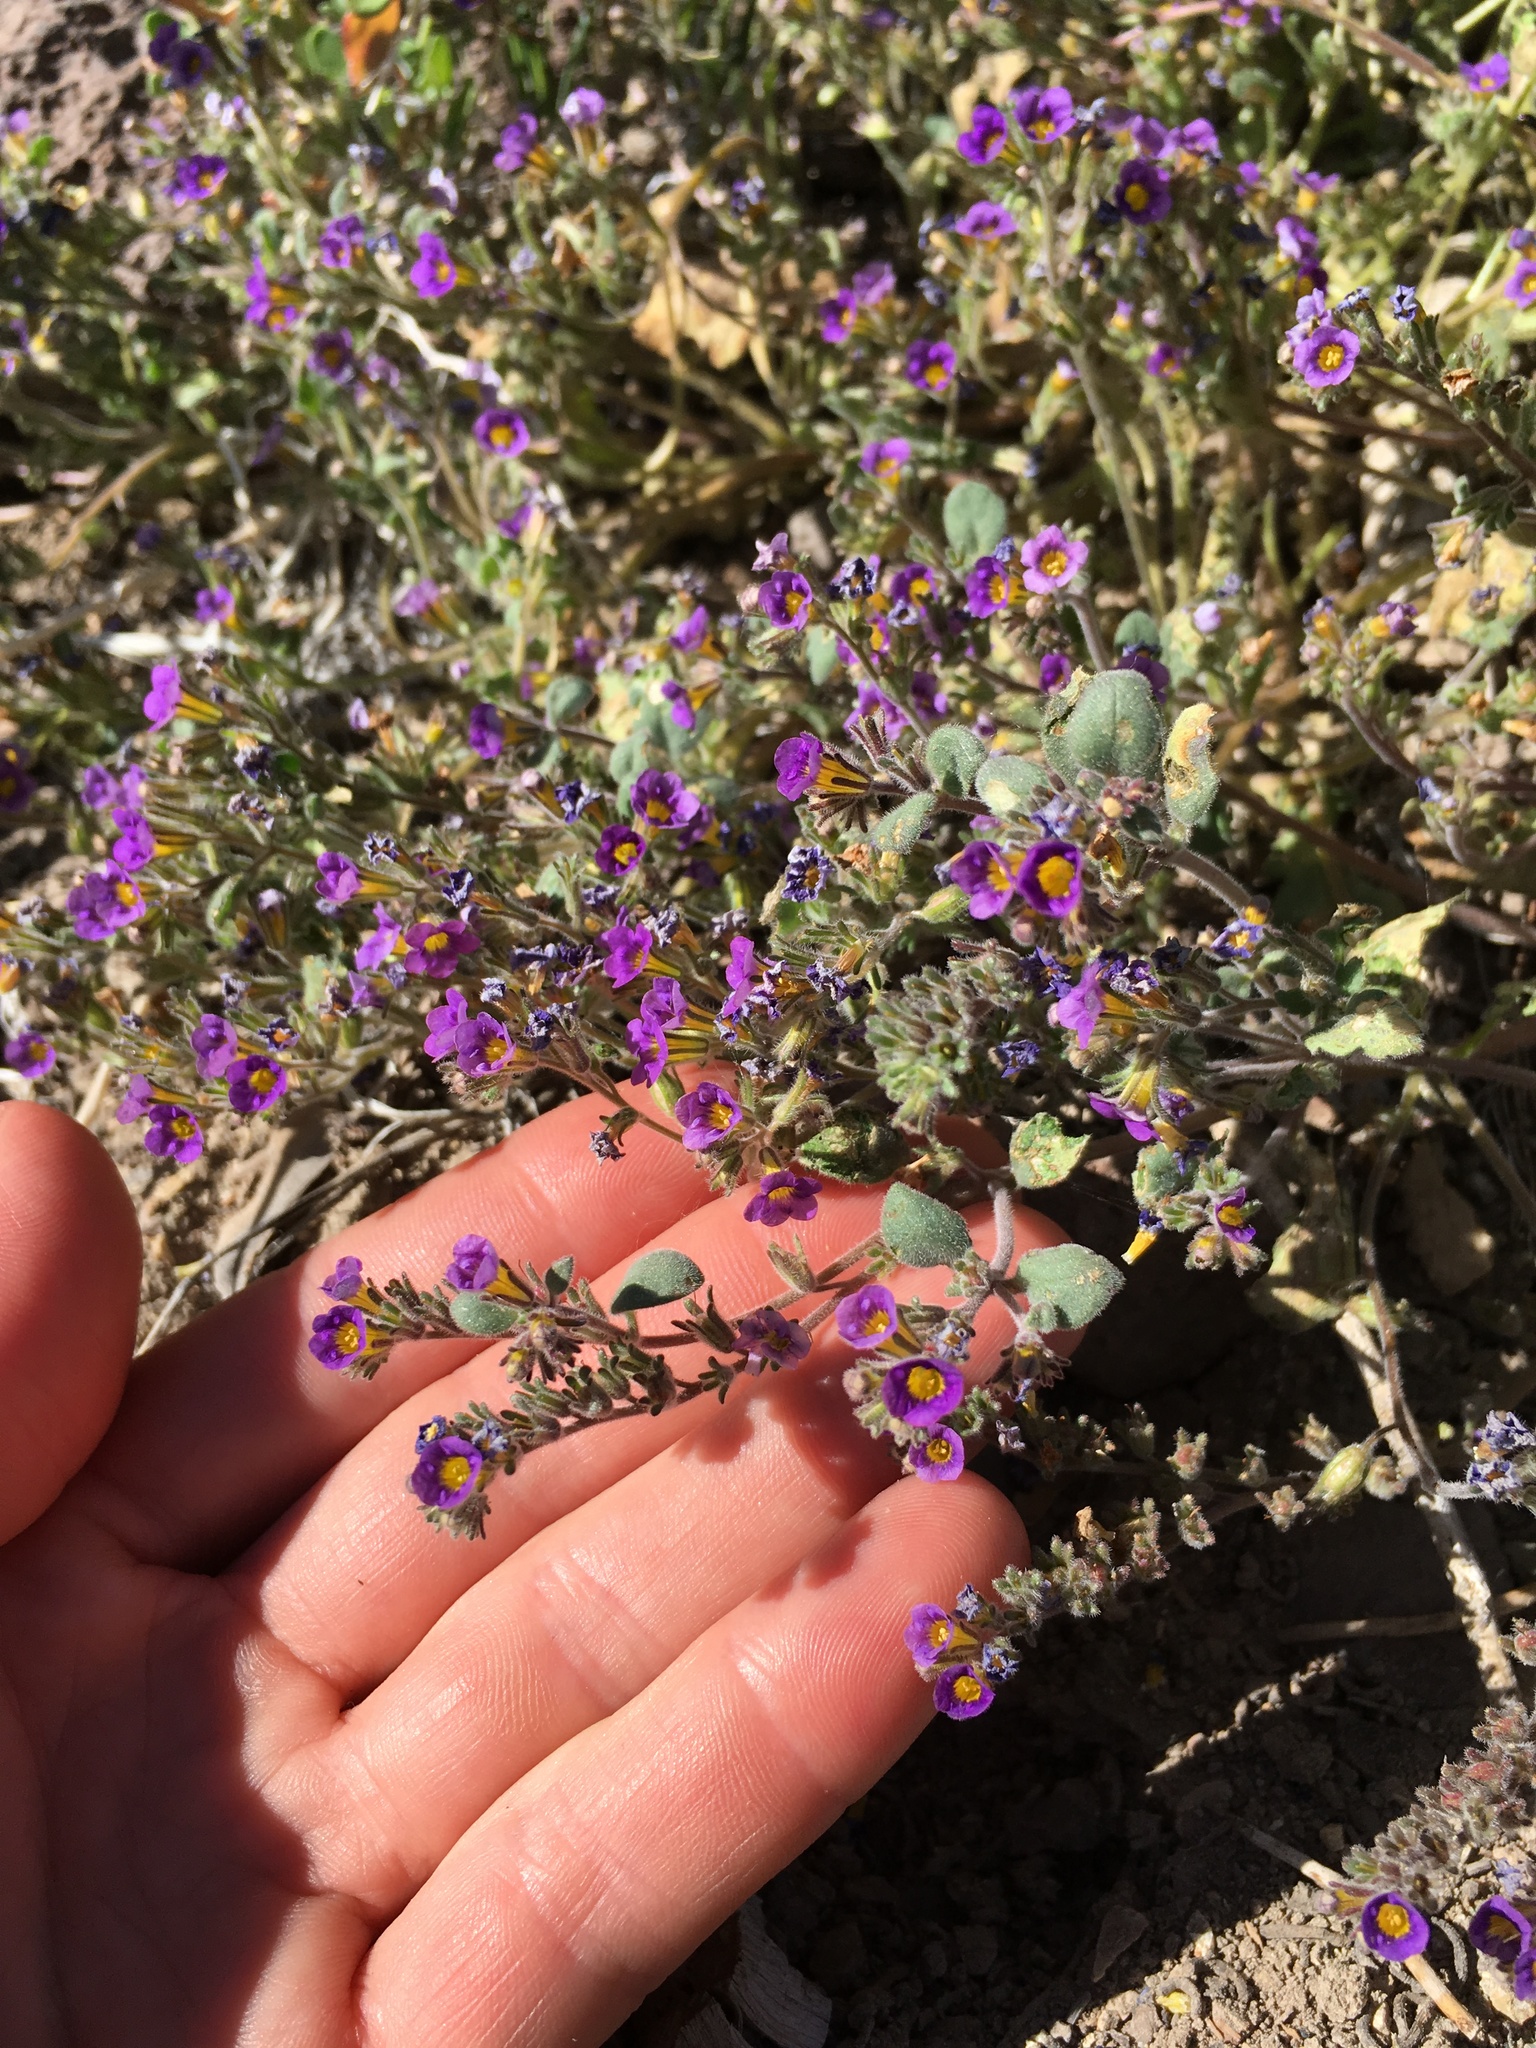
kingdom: Plantae
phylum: Tracheophyta
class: Magnoliopsida
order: Boraginales
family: Hydrophyllaceae
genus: Phacelia
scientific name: Phacelia gymnoclada
